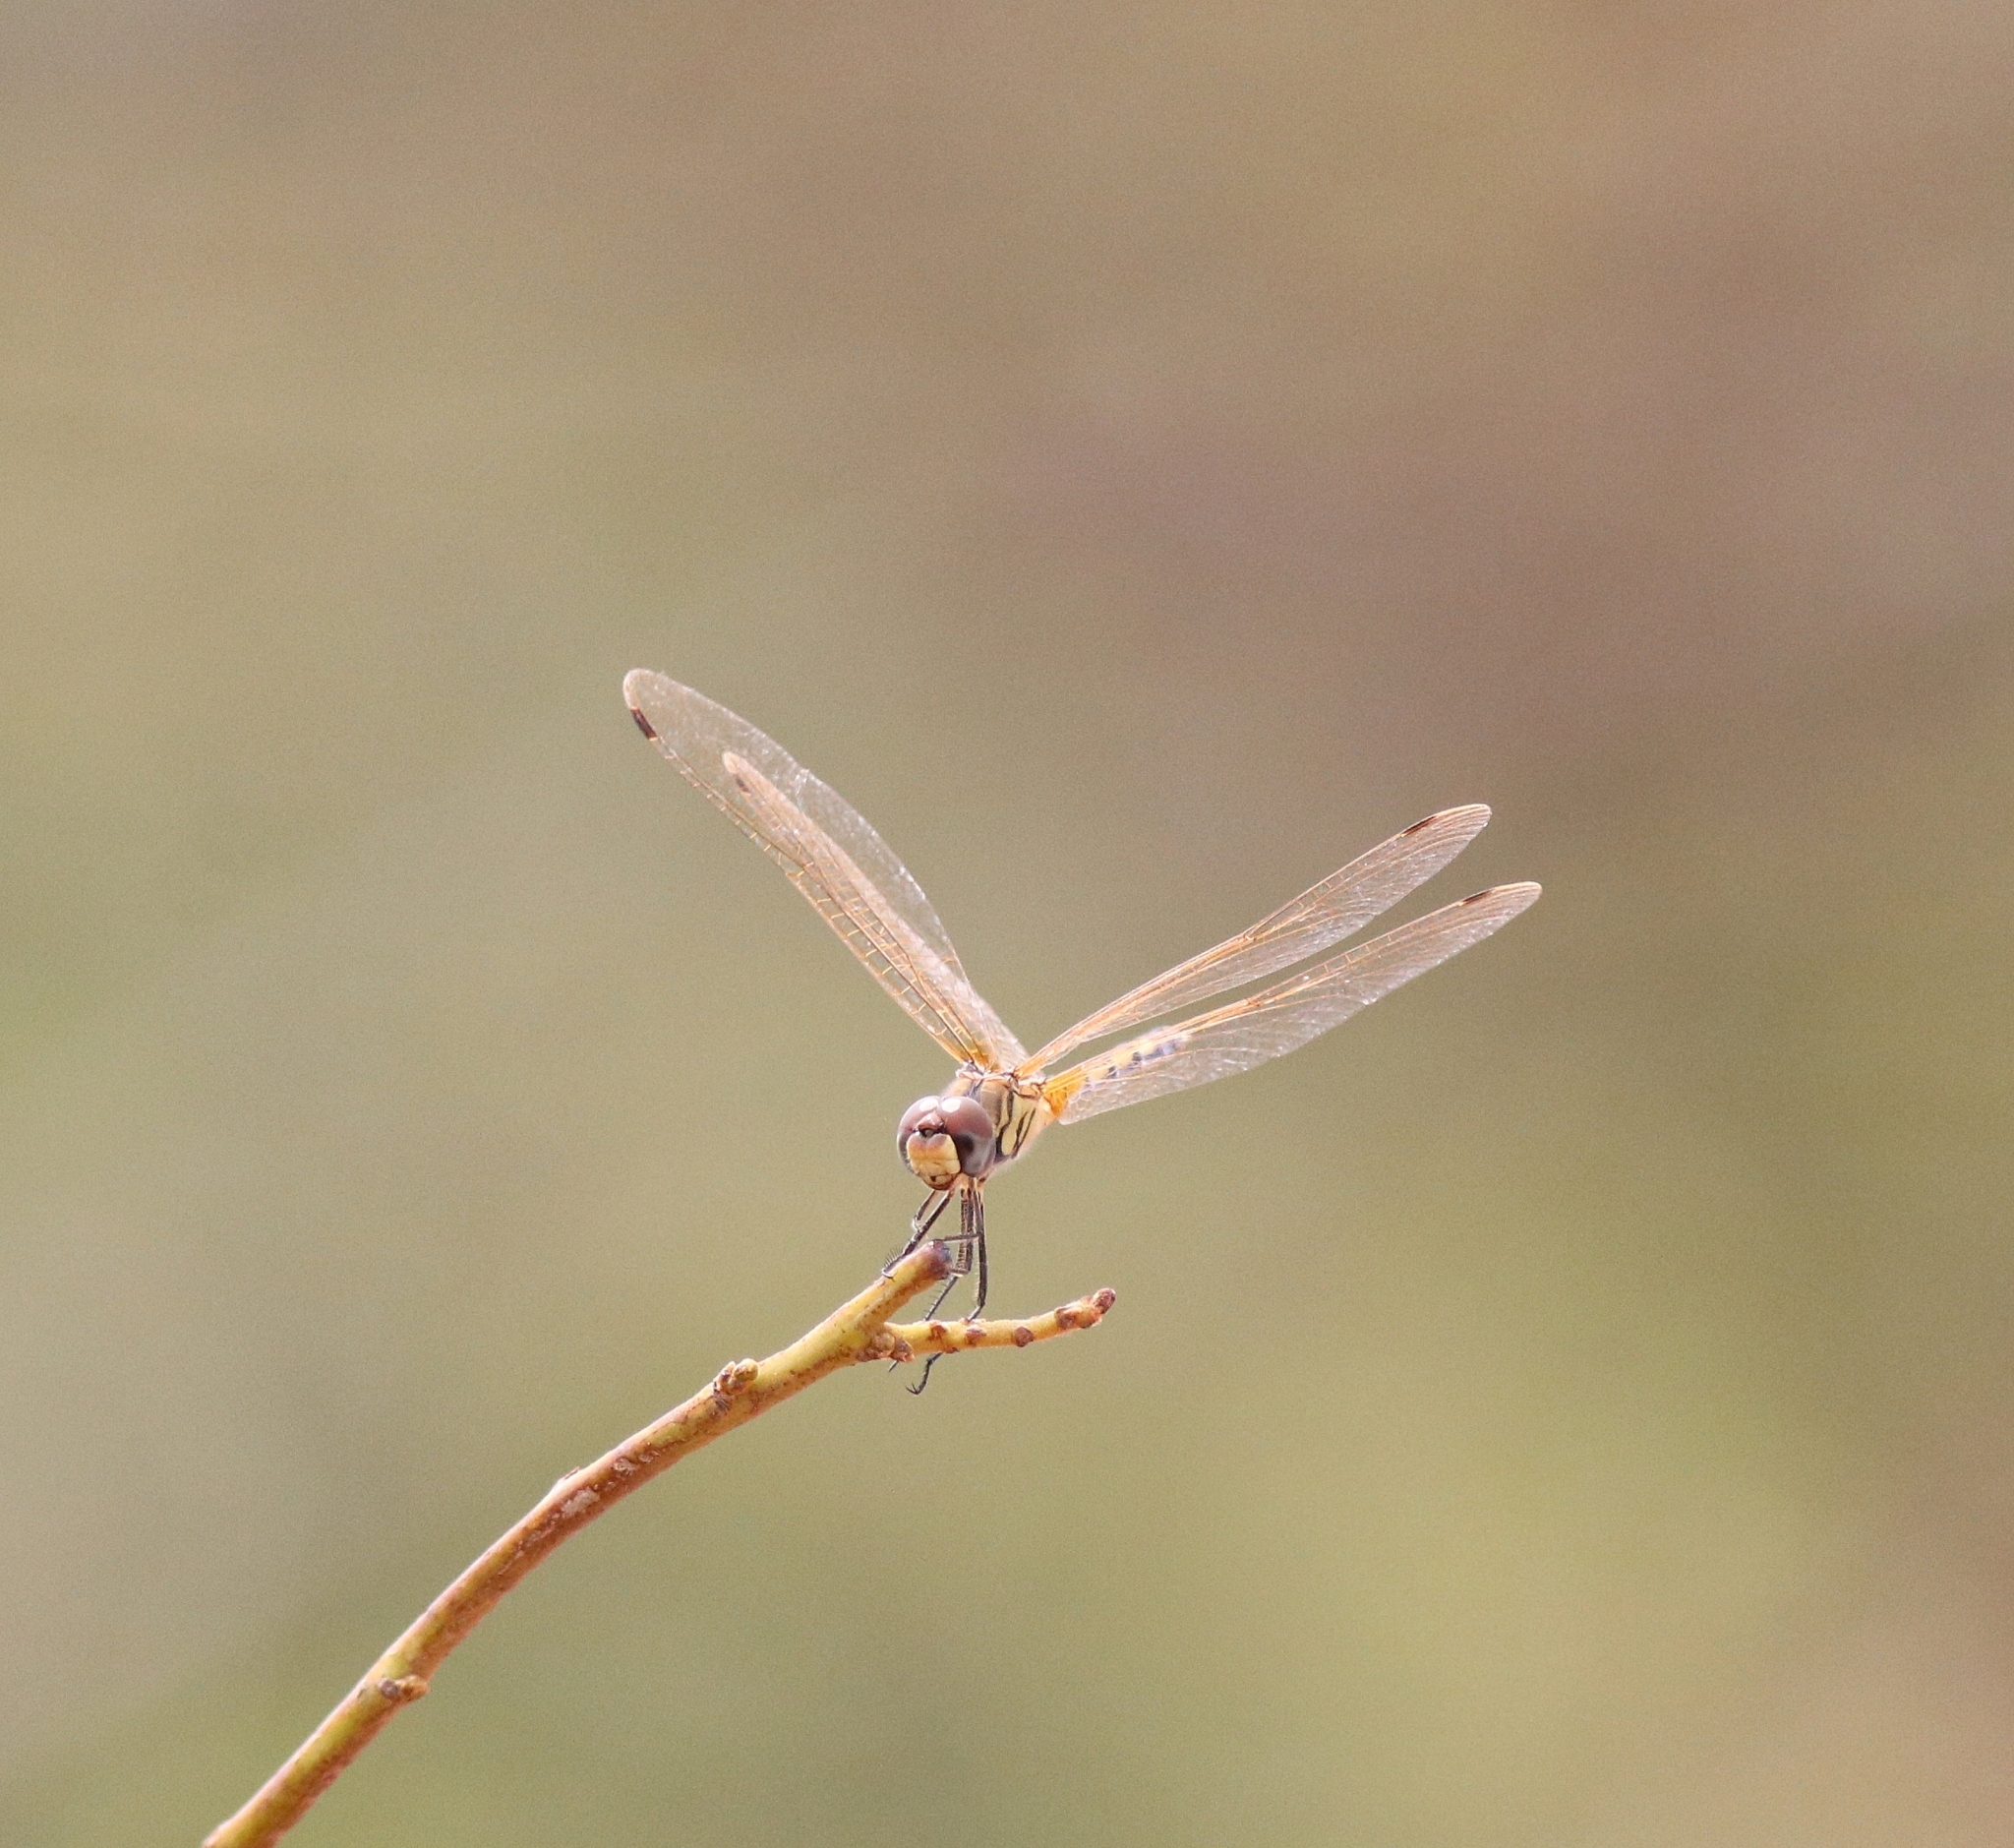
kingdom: Animalia
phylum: Arthropoda
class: Insecta
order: Odonata
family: Libellulidae
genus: Trithemis
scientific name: Trithemis pallidinervis
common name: Dancing dropwing
